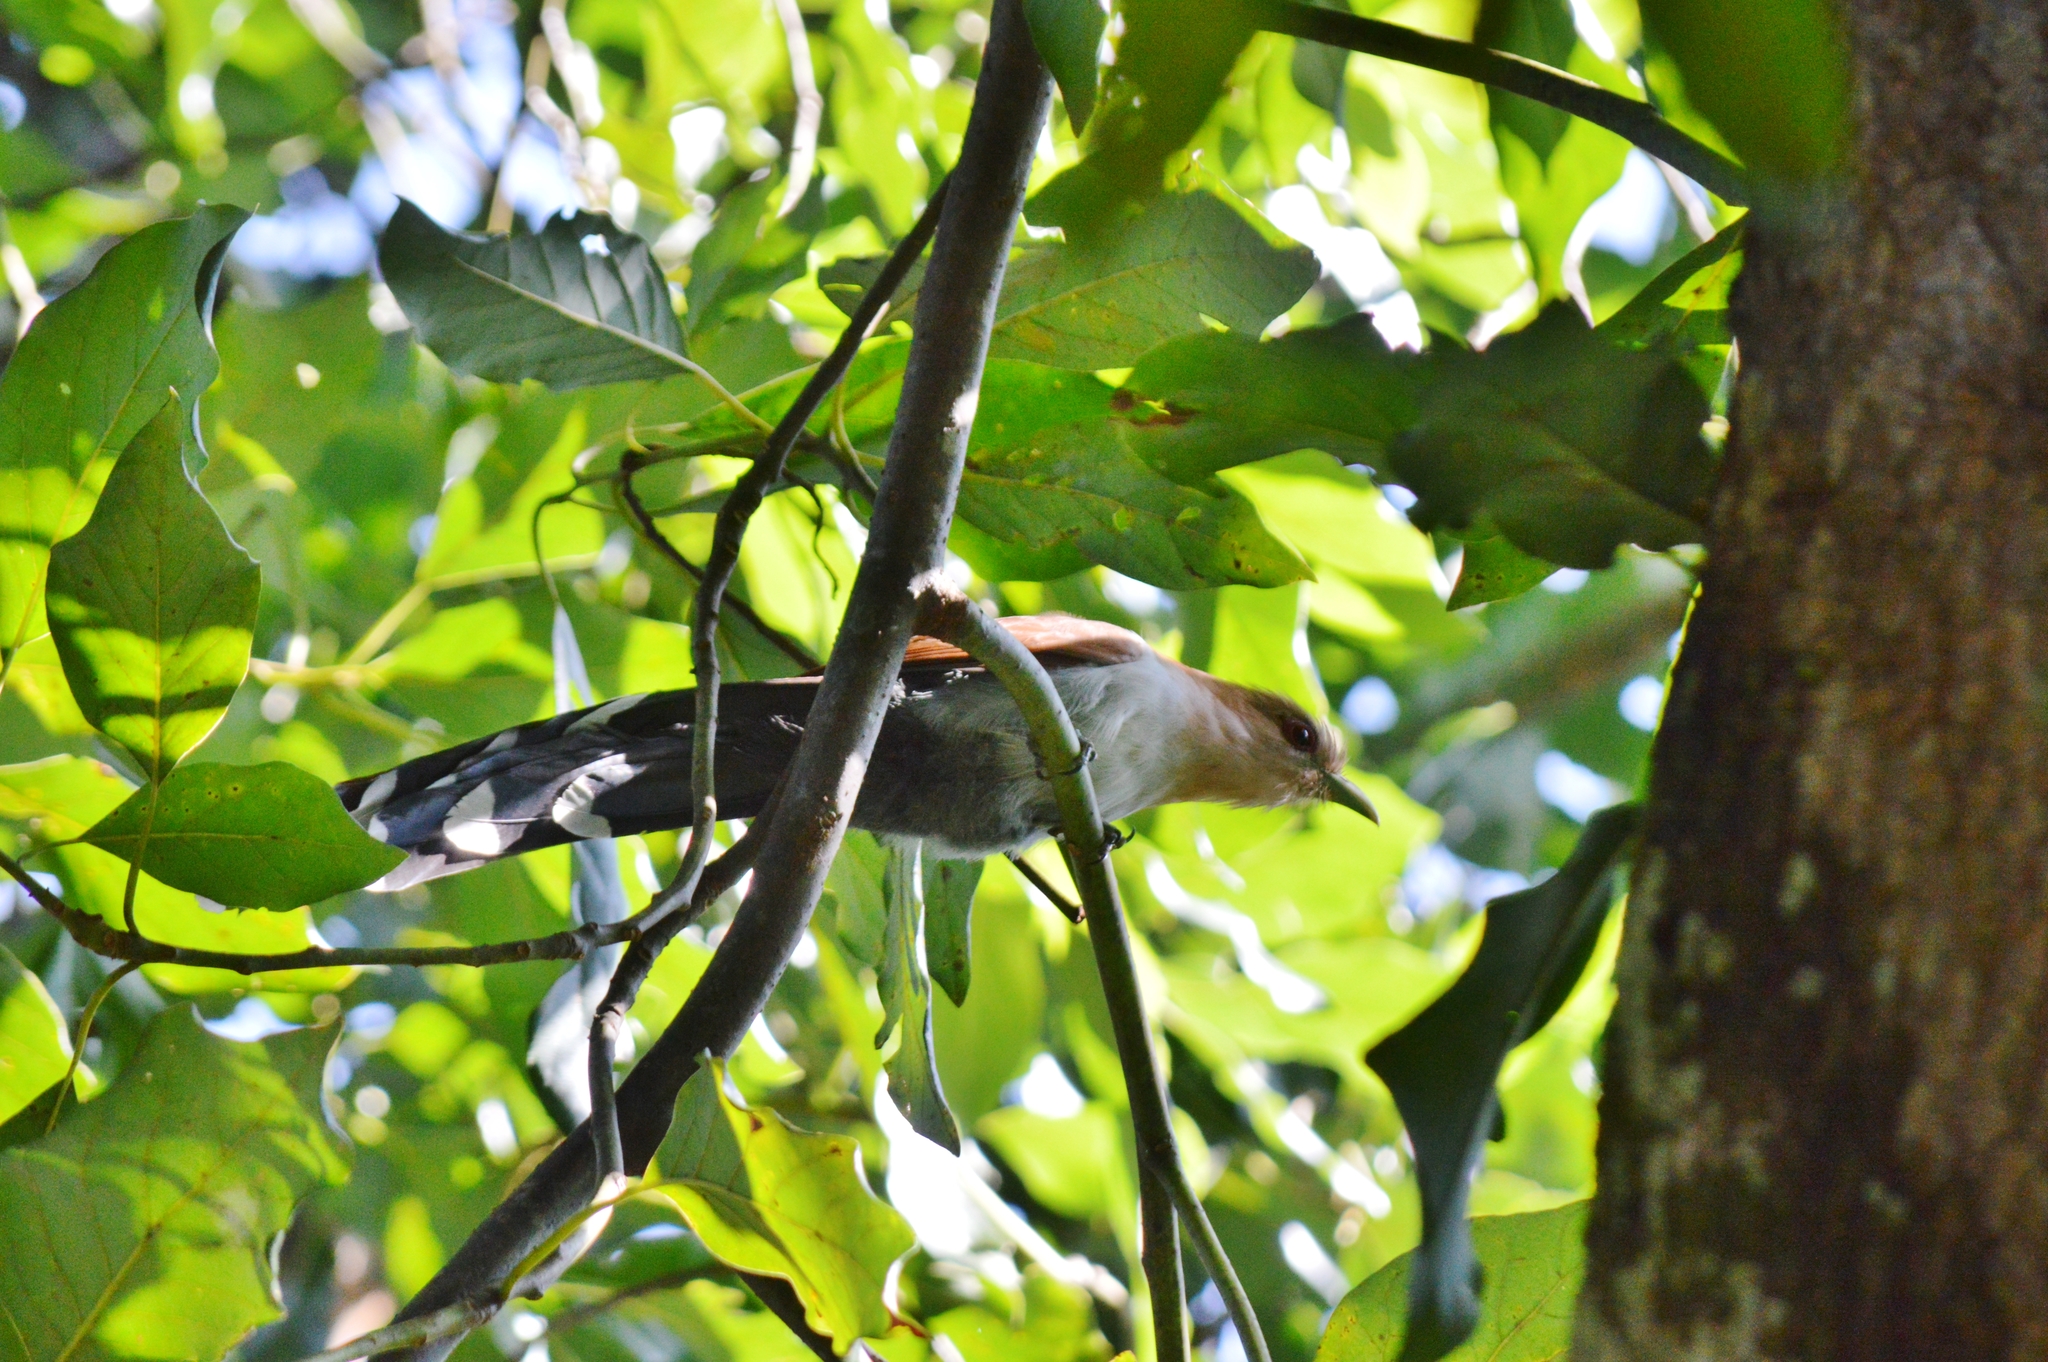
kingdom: Animalia
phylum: Chordata
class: Aves
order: Cuculiformes
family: Cuculidae
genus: Piaya
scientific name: Piaya cayana
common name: Squirrel cuckoo
